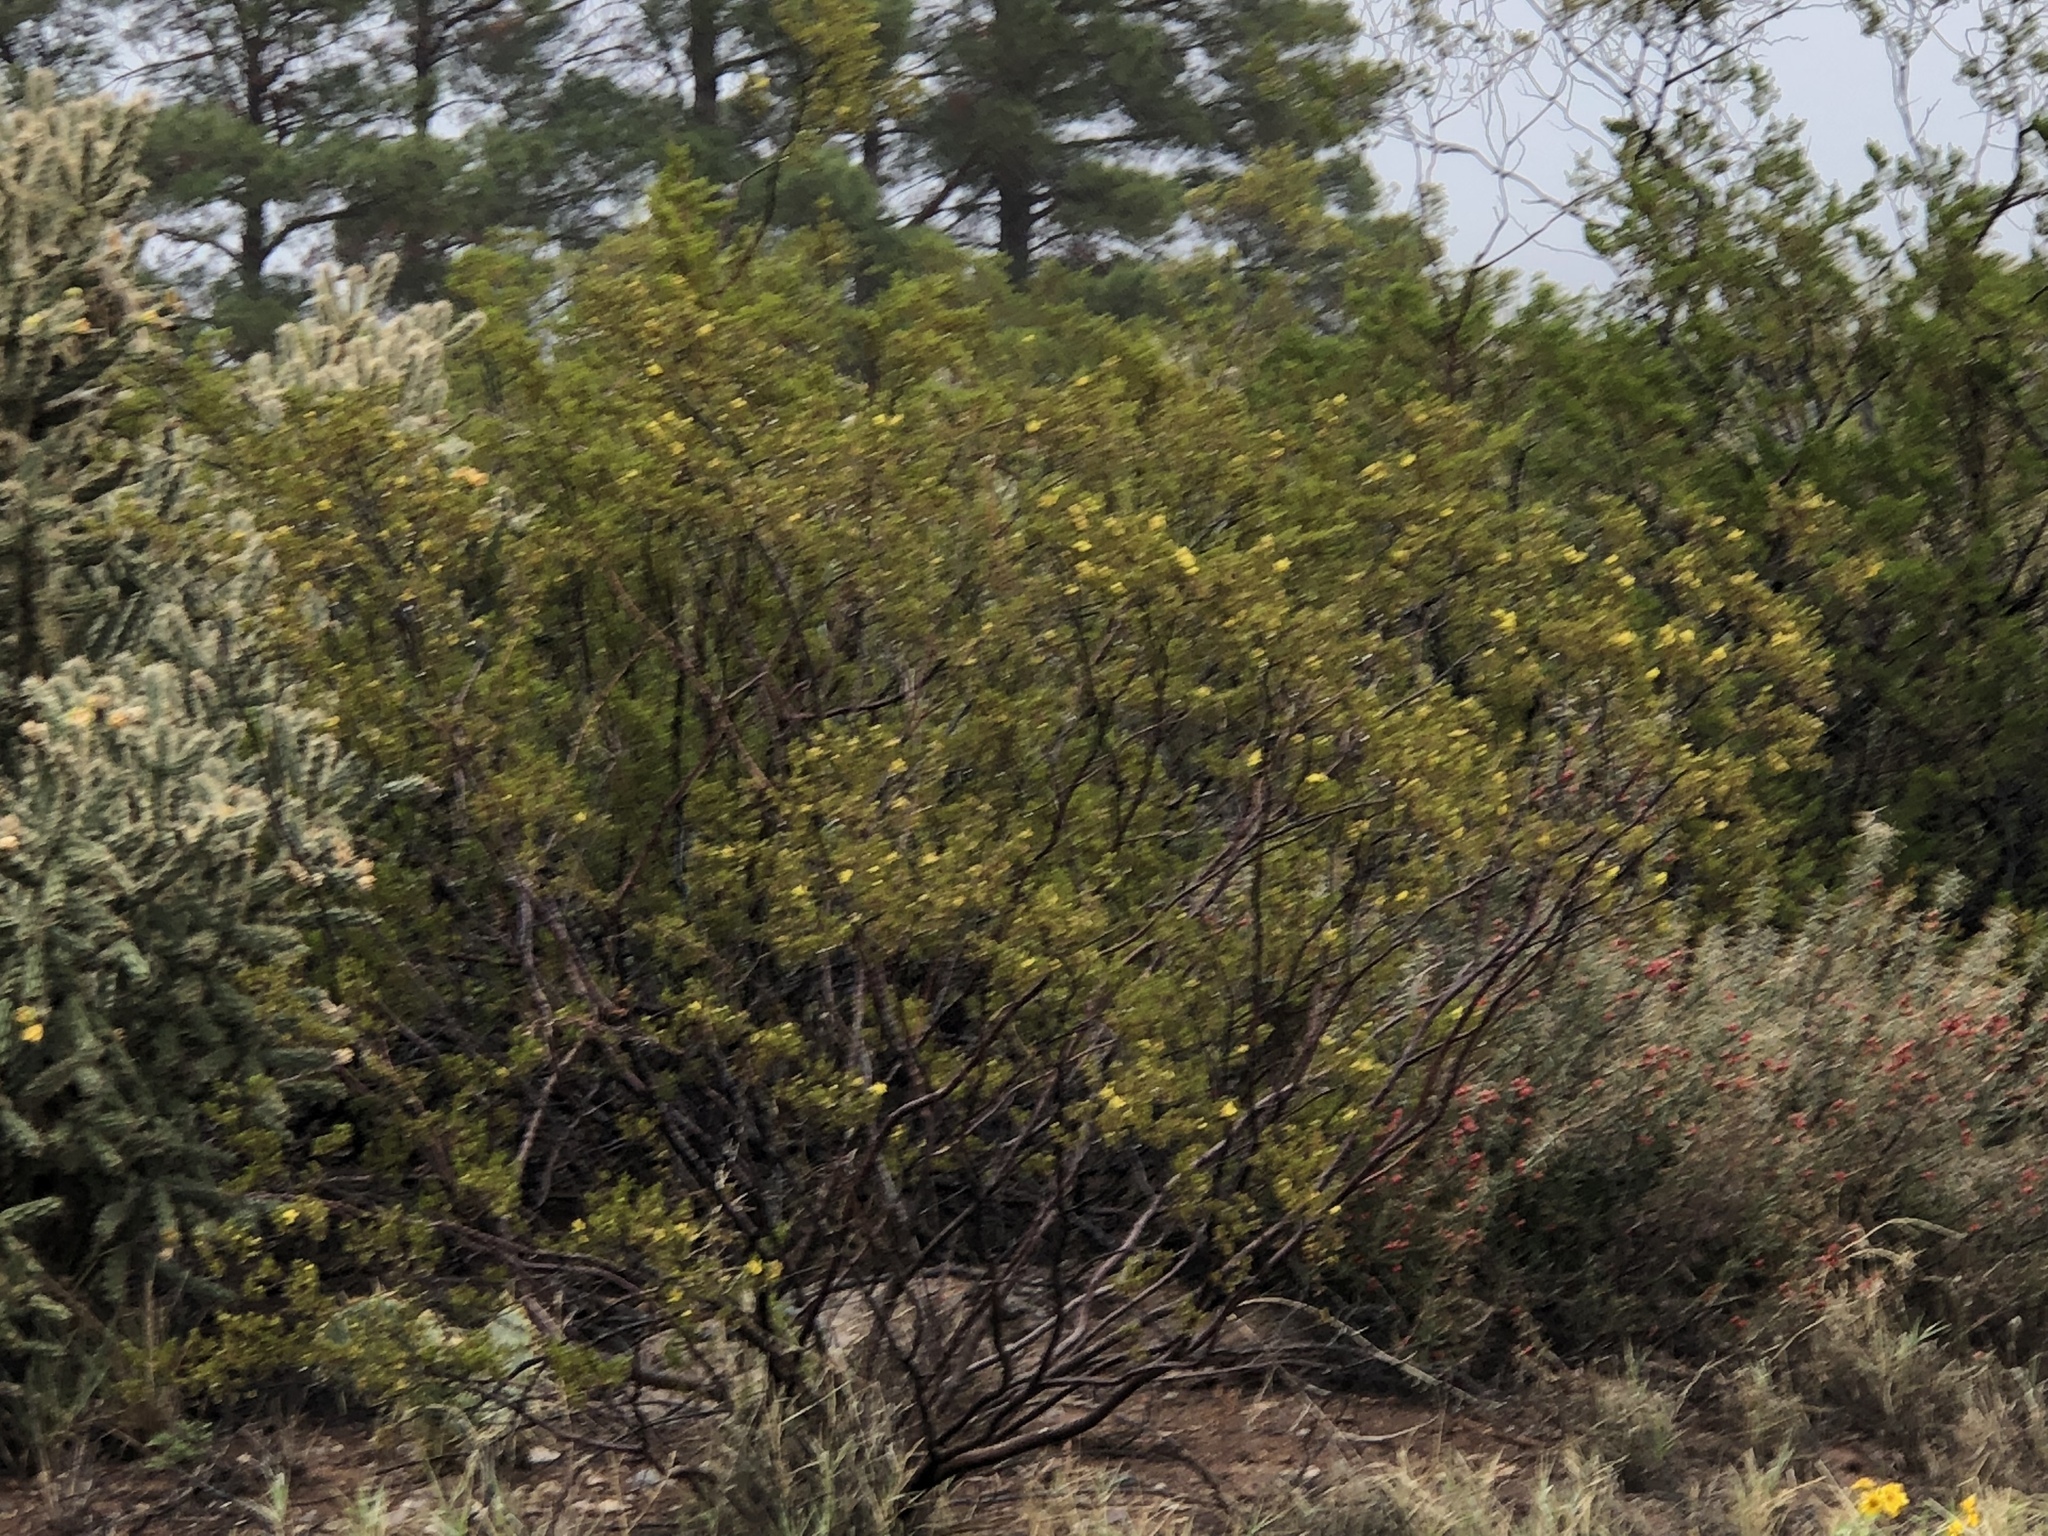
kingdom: Plantae
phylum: Tracheophyta
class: Magnoliopsida
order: Zygophyllales
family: Zygophyllaceae
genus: Larrea
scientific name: Larrea tridentata
